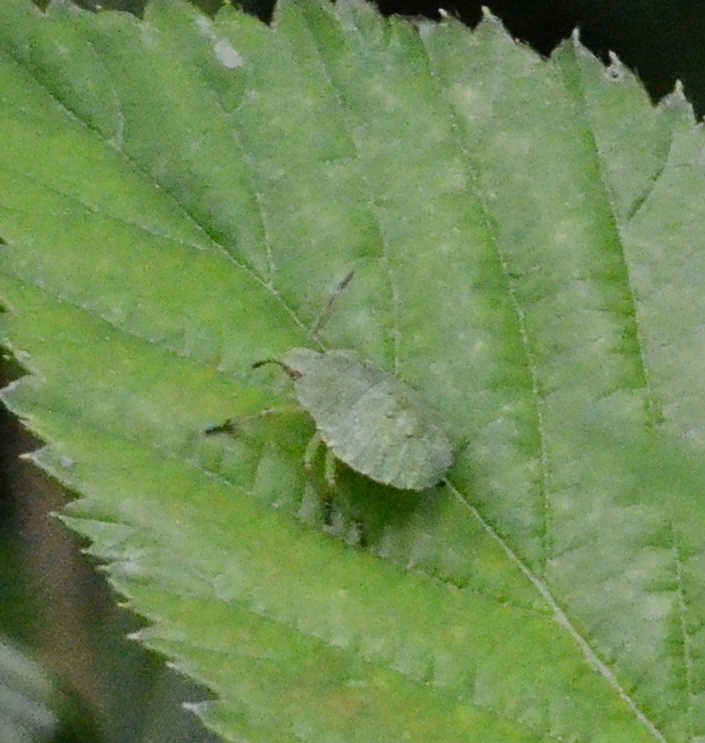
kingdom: Animalia
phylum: Arthropoda
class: Insecta
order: Hemiptera
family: Pentatomidae
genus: Palomena
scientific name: Palomena prasina
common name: Green shieldbug
